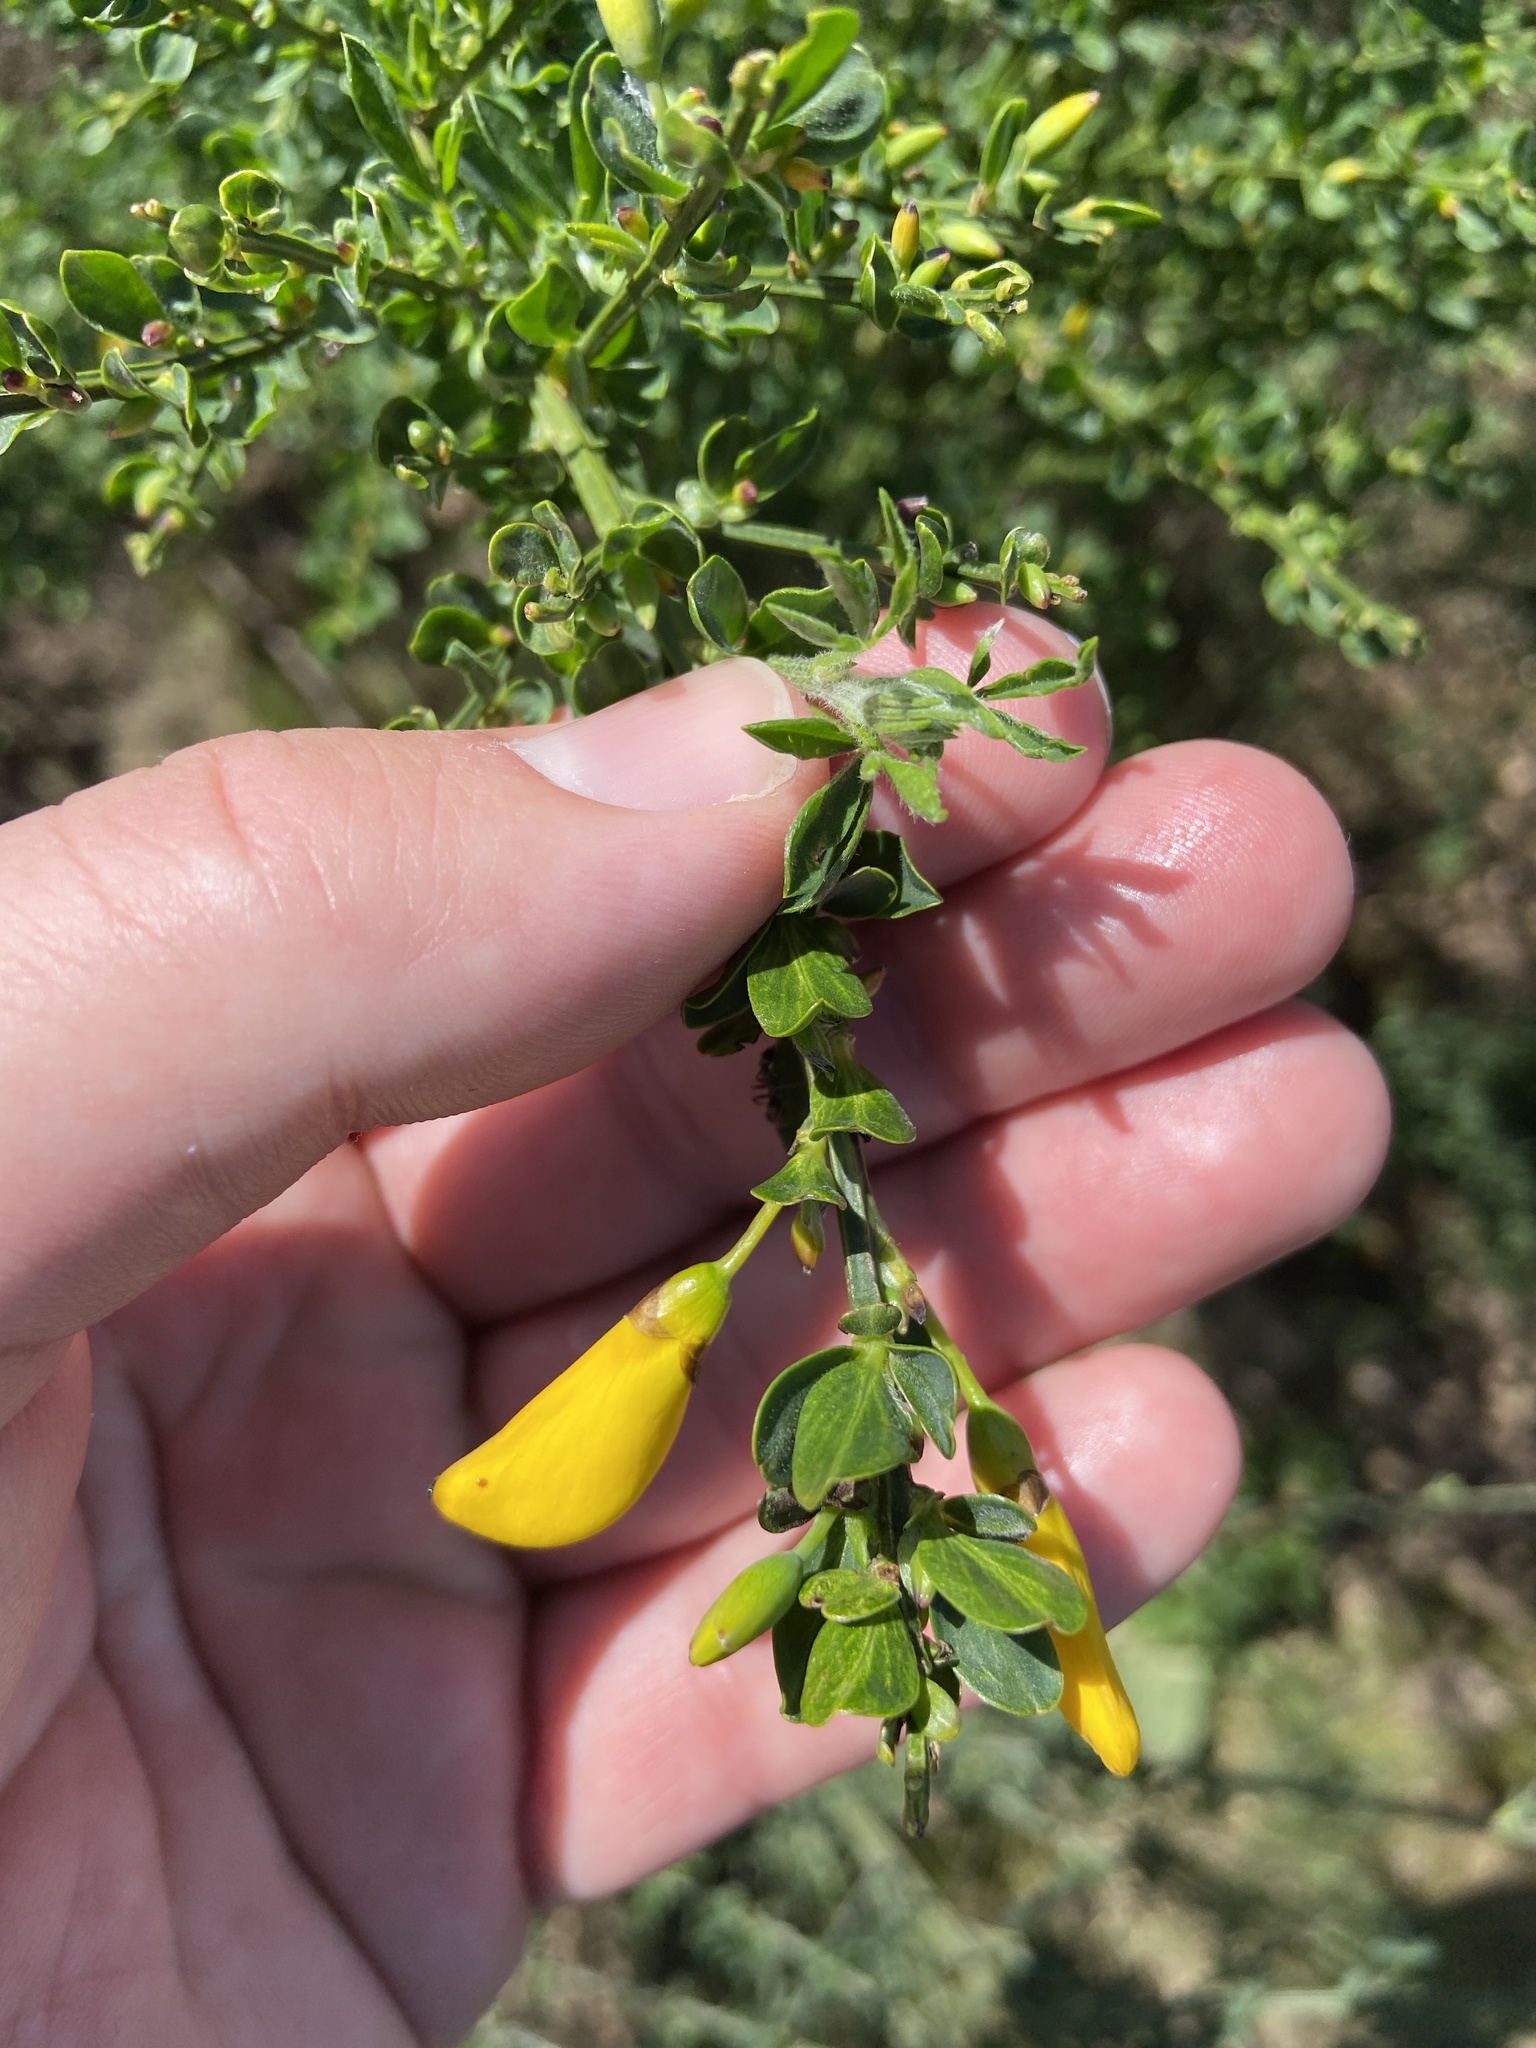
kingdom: Plantae
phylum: Tracheophyta
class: Magnoliopsida
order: Fabales
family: Fabaceae
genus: Cytisus
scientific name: Cytisus scoparius
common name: Scotch broom
